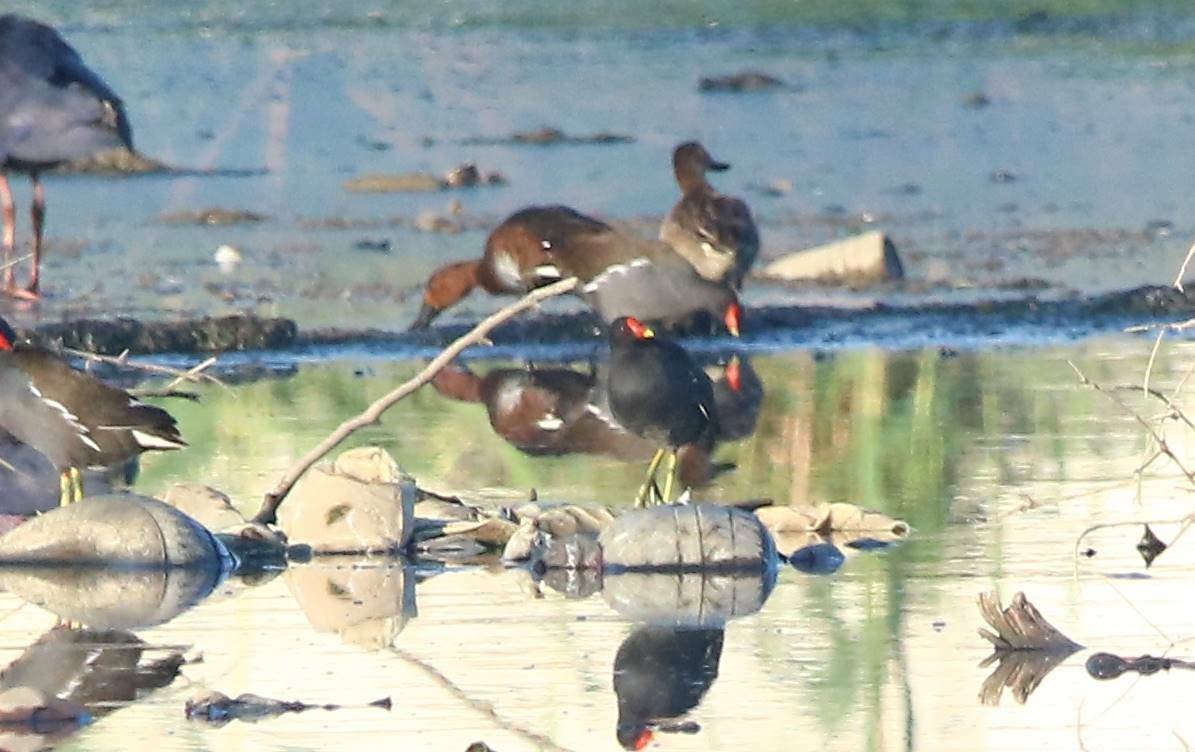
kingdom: Animalia
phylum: Chordata
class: Aves
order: Gruiformes
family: Rallidae
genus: Gallinula
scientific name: Gallinula chloropus
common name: Common moorhen
